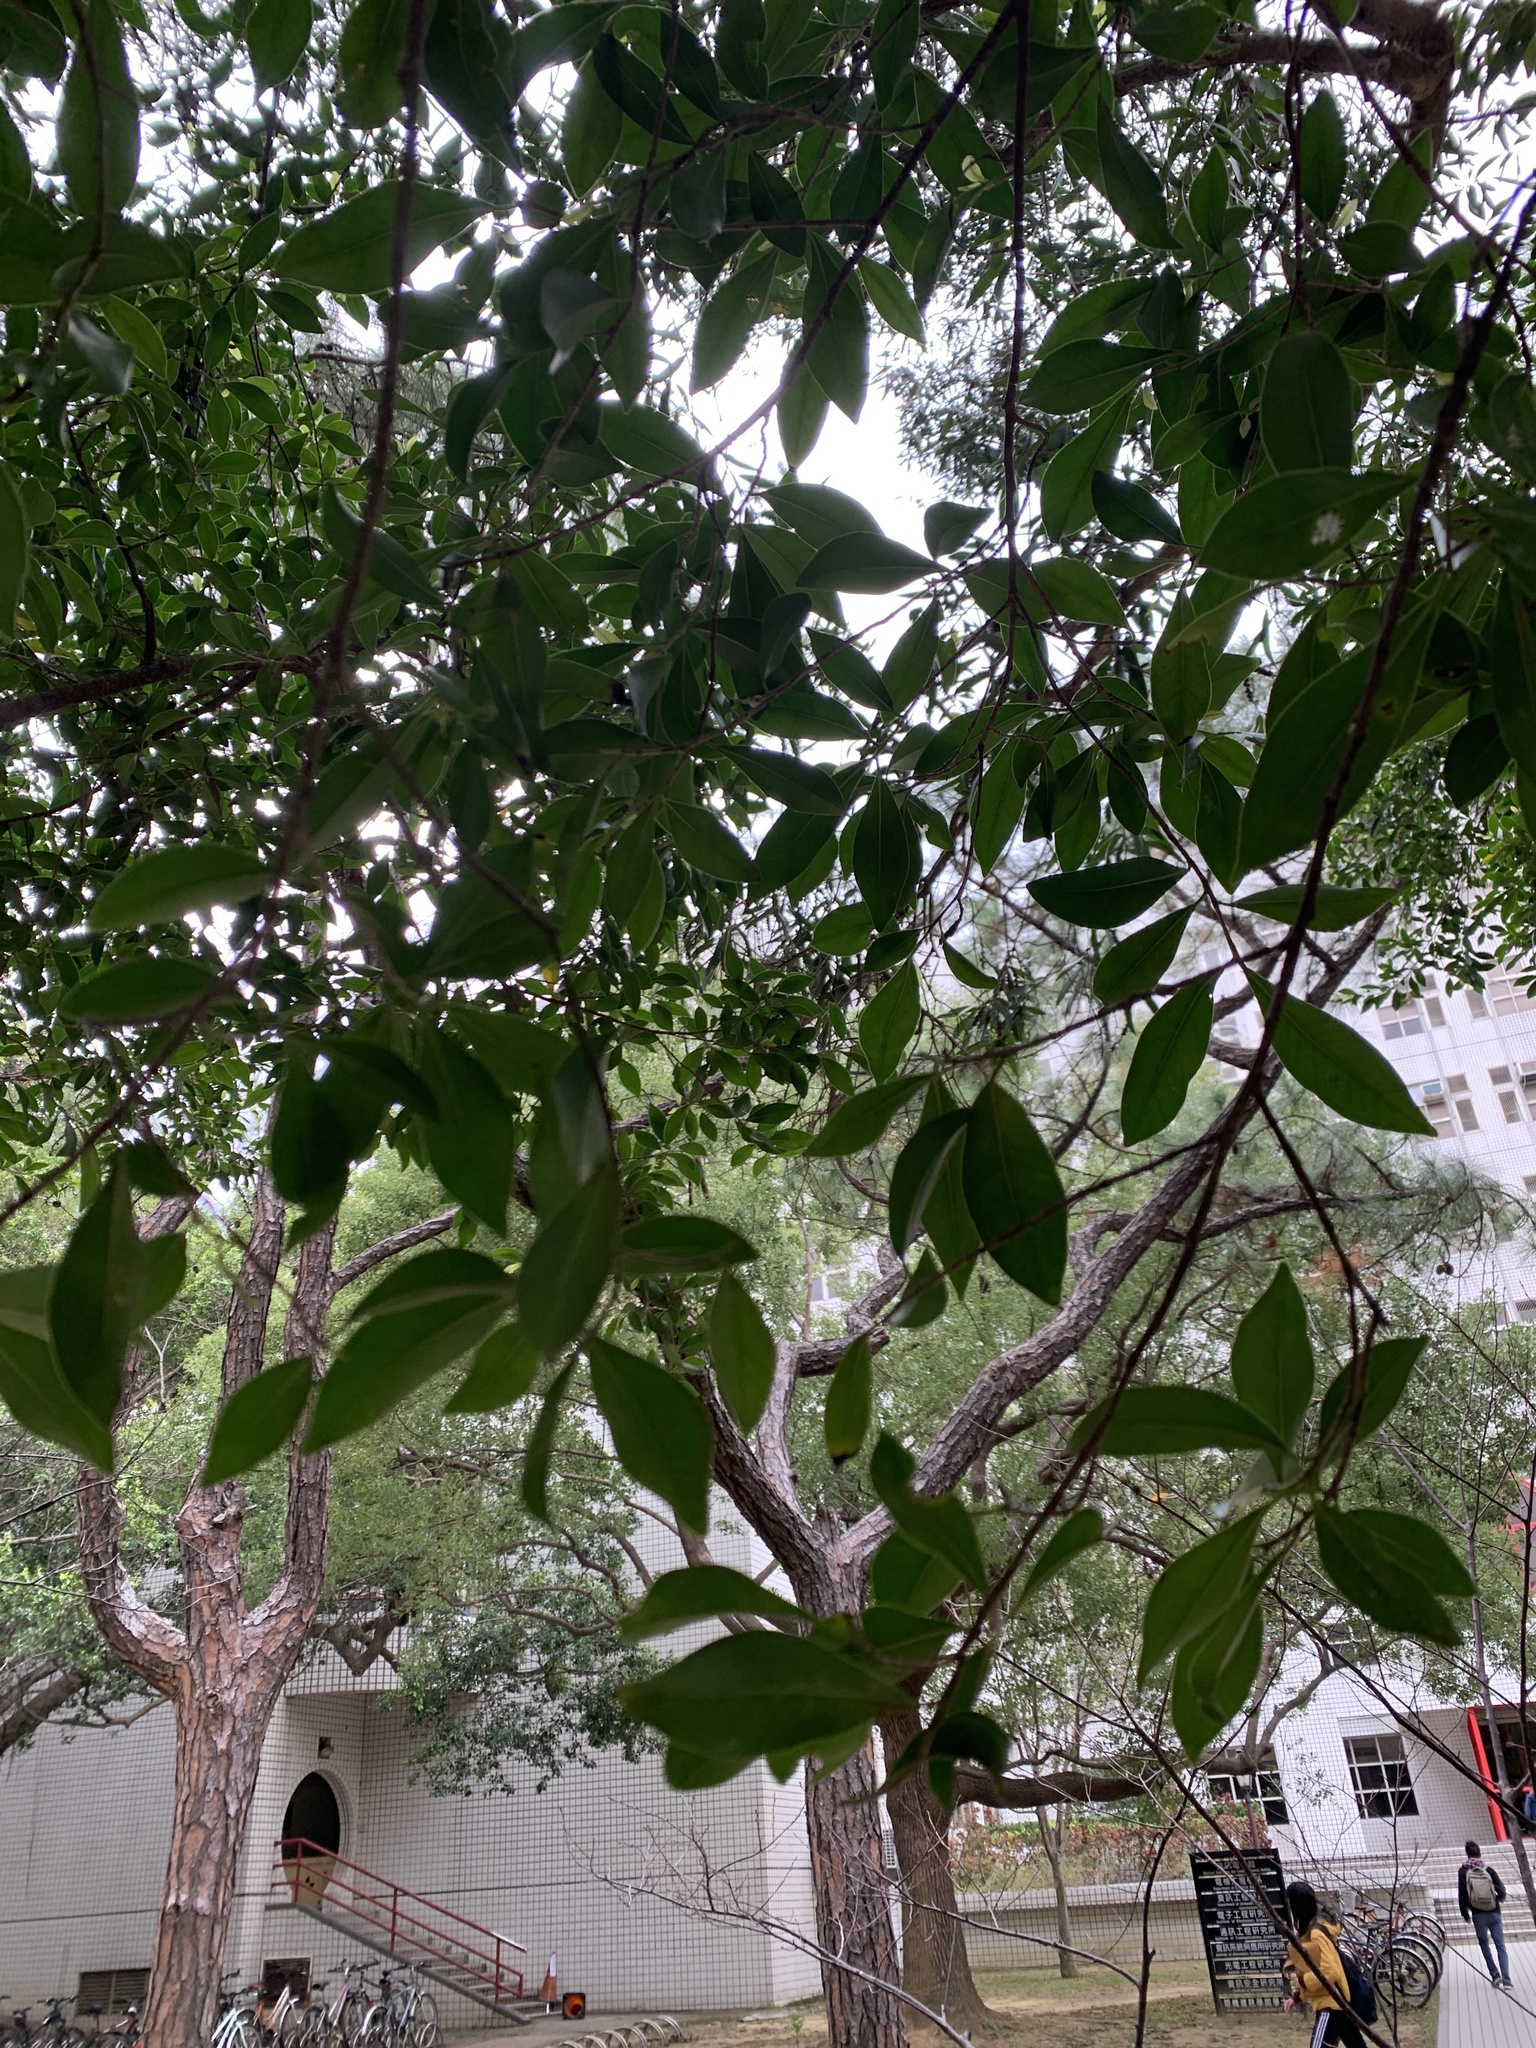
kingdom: Plantae
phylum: Tracheophyta
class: Magnoliopsida
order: Rosales
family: Moraceae
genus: Ficus
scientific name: Ficus microcarpa
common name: Chinese banyan
